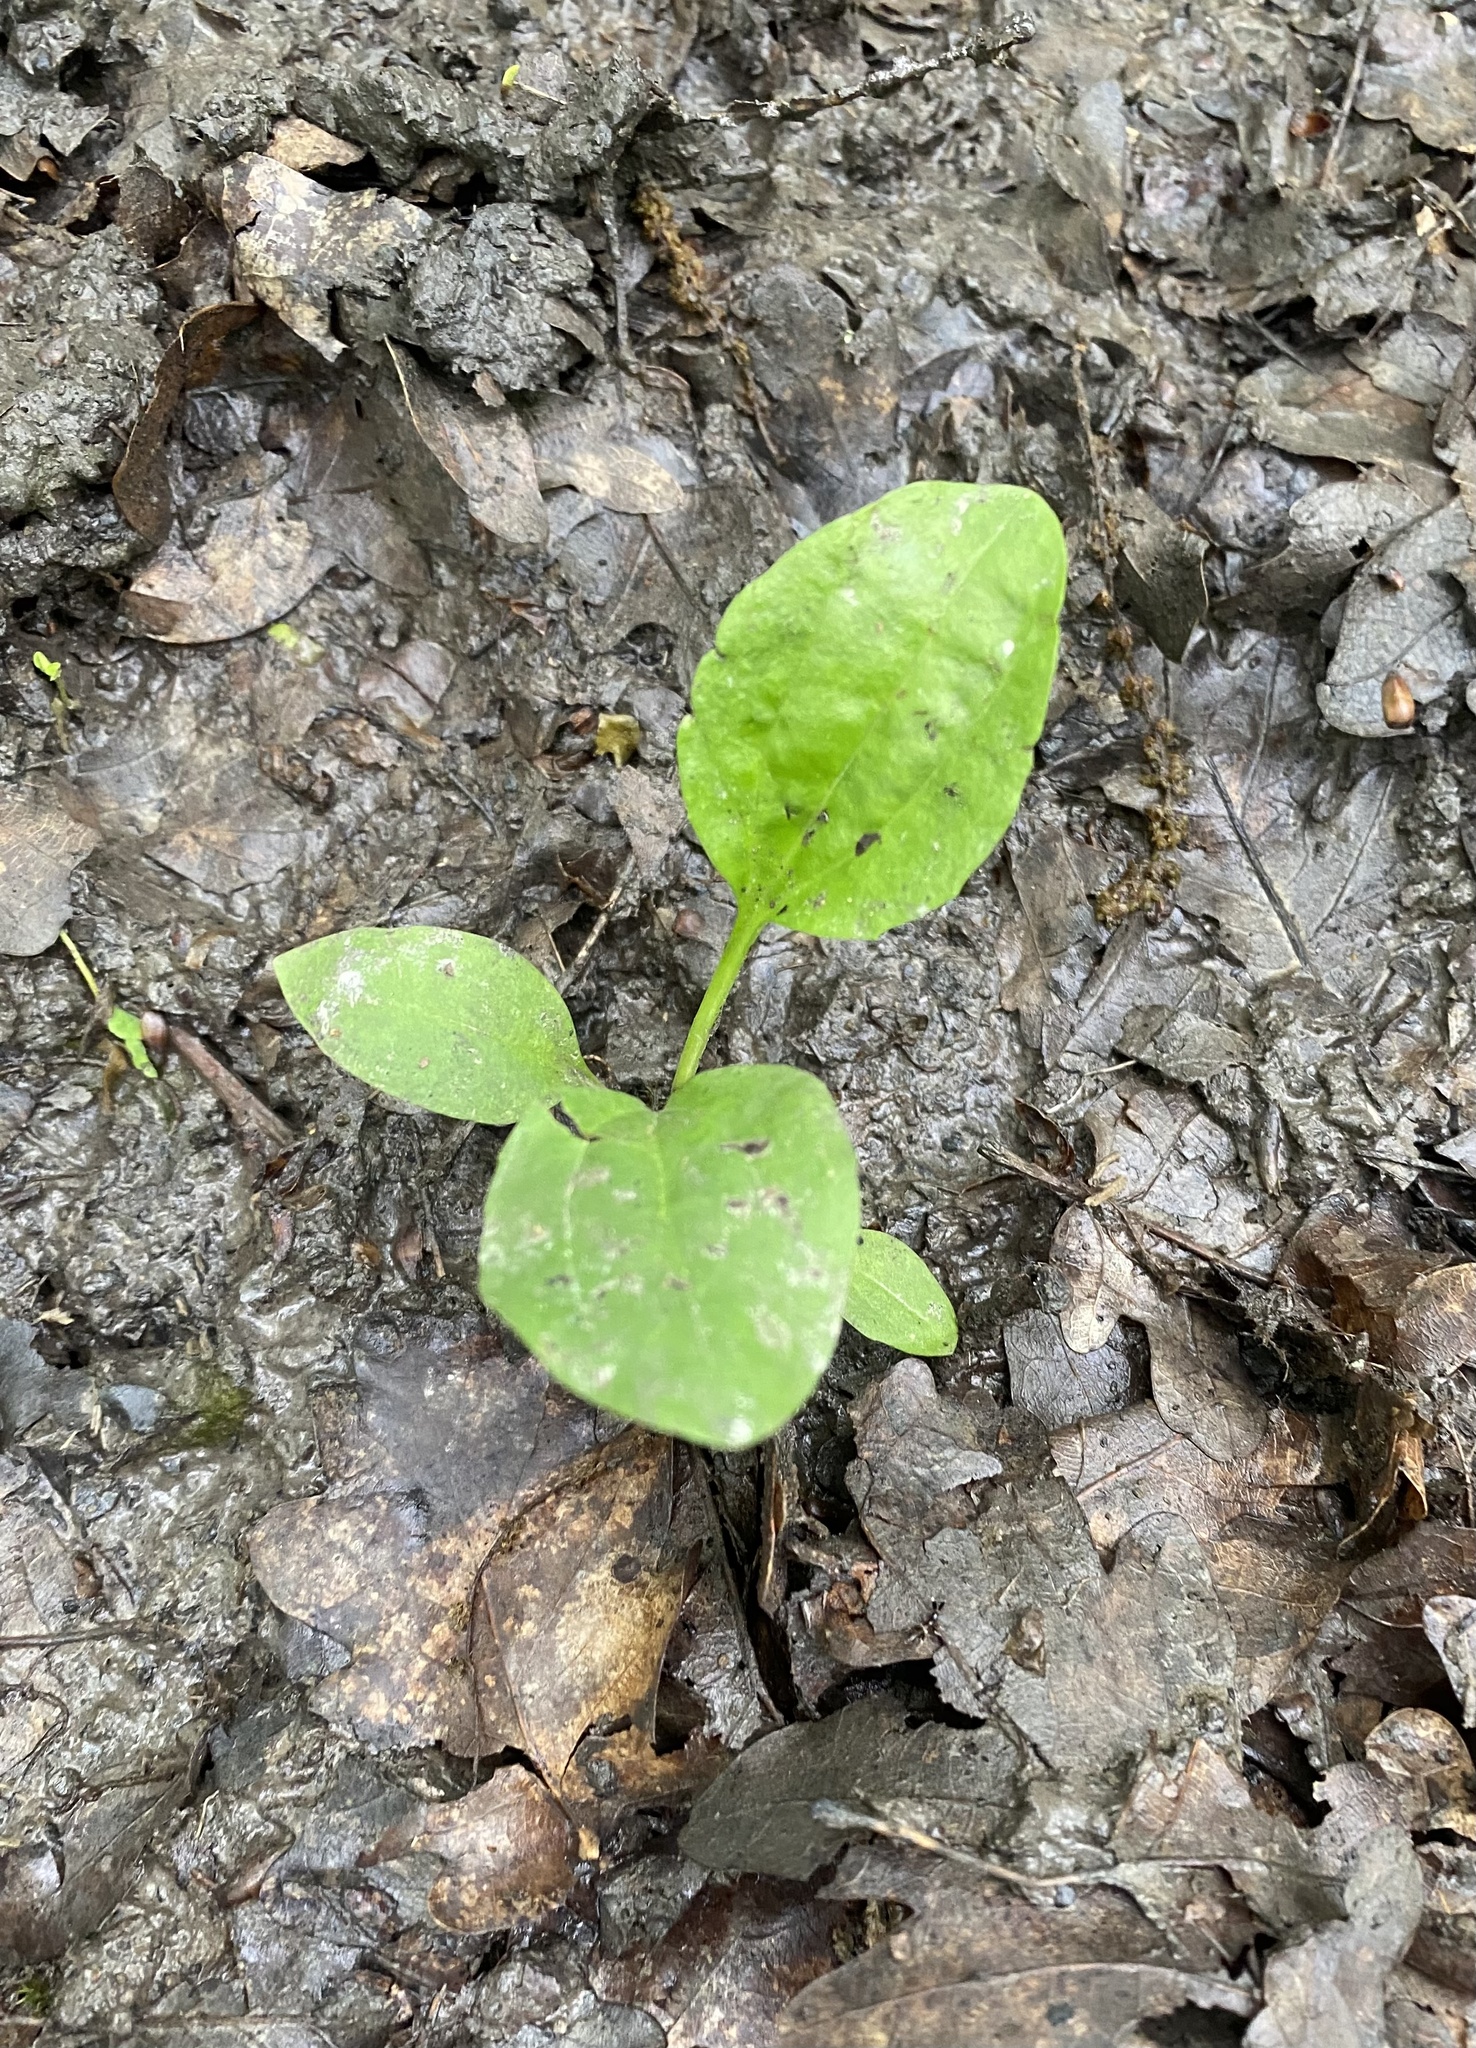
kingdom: Plantae
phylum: Tracheophyta
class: Magnoliopsida
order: Lamiales
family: Plantaginaceae
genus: Plantago
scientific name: Plantago major
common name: Common plantain
